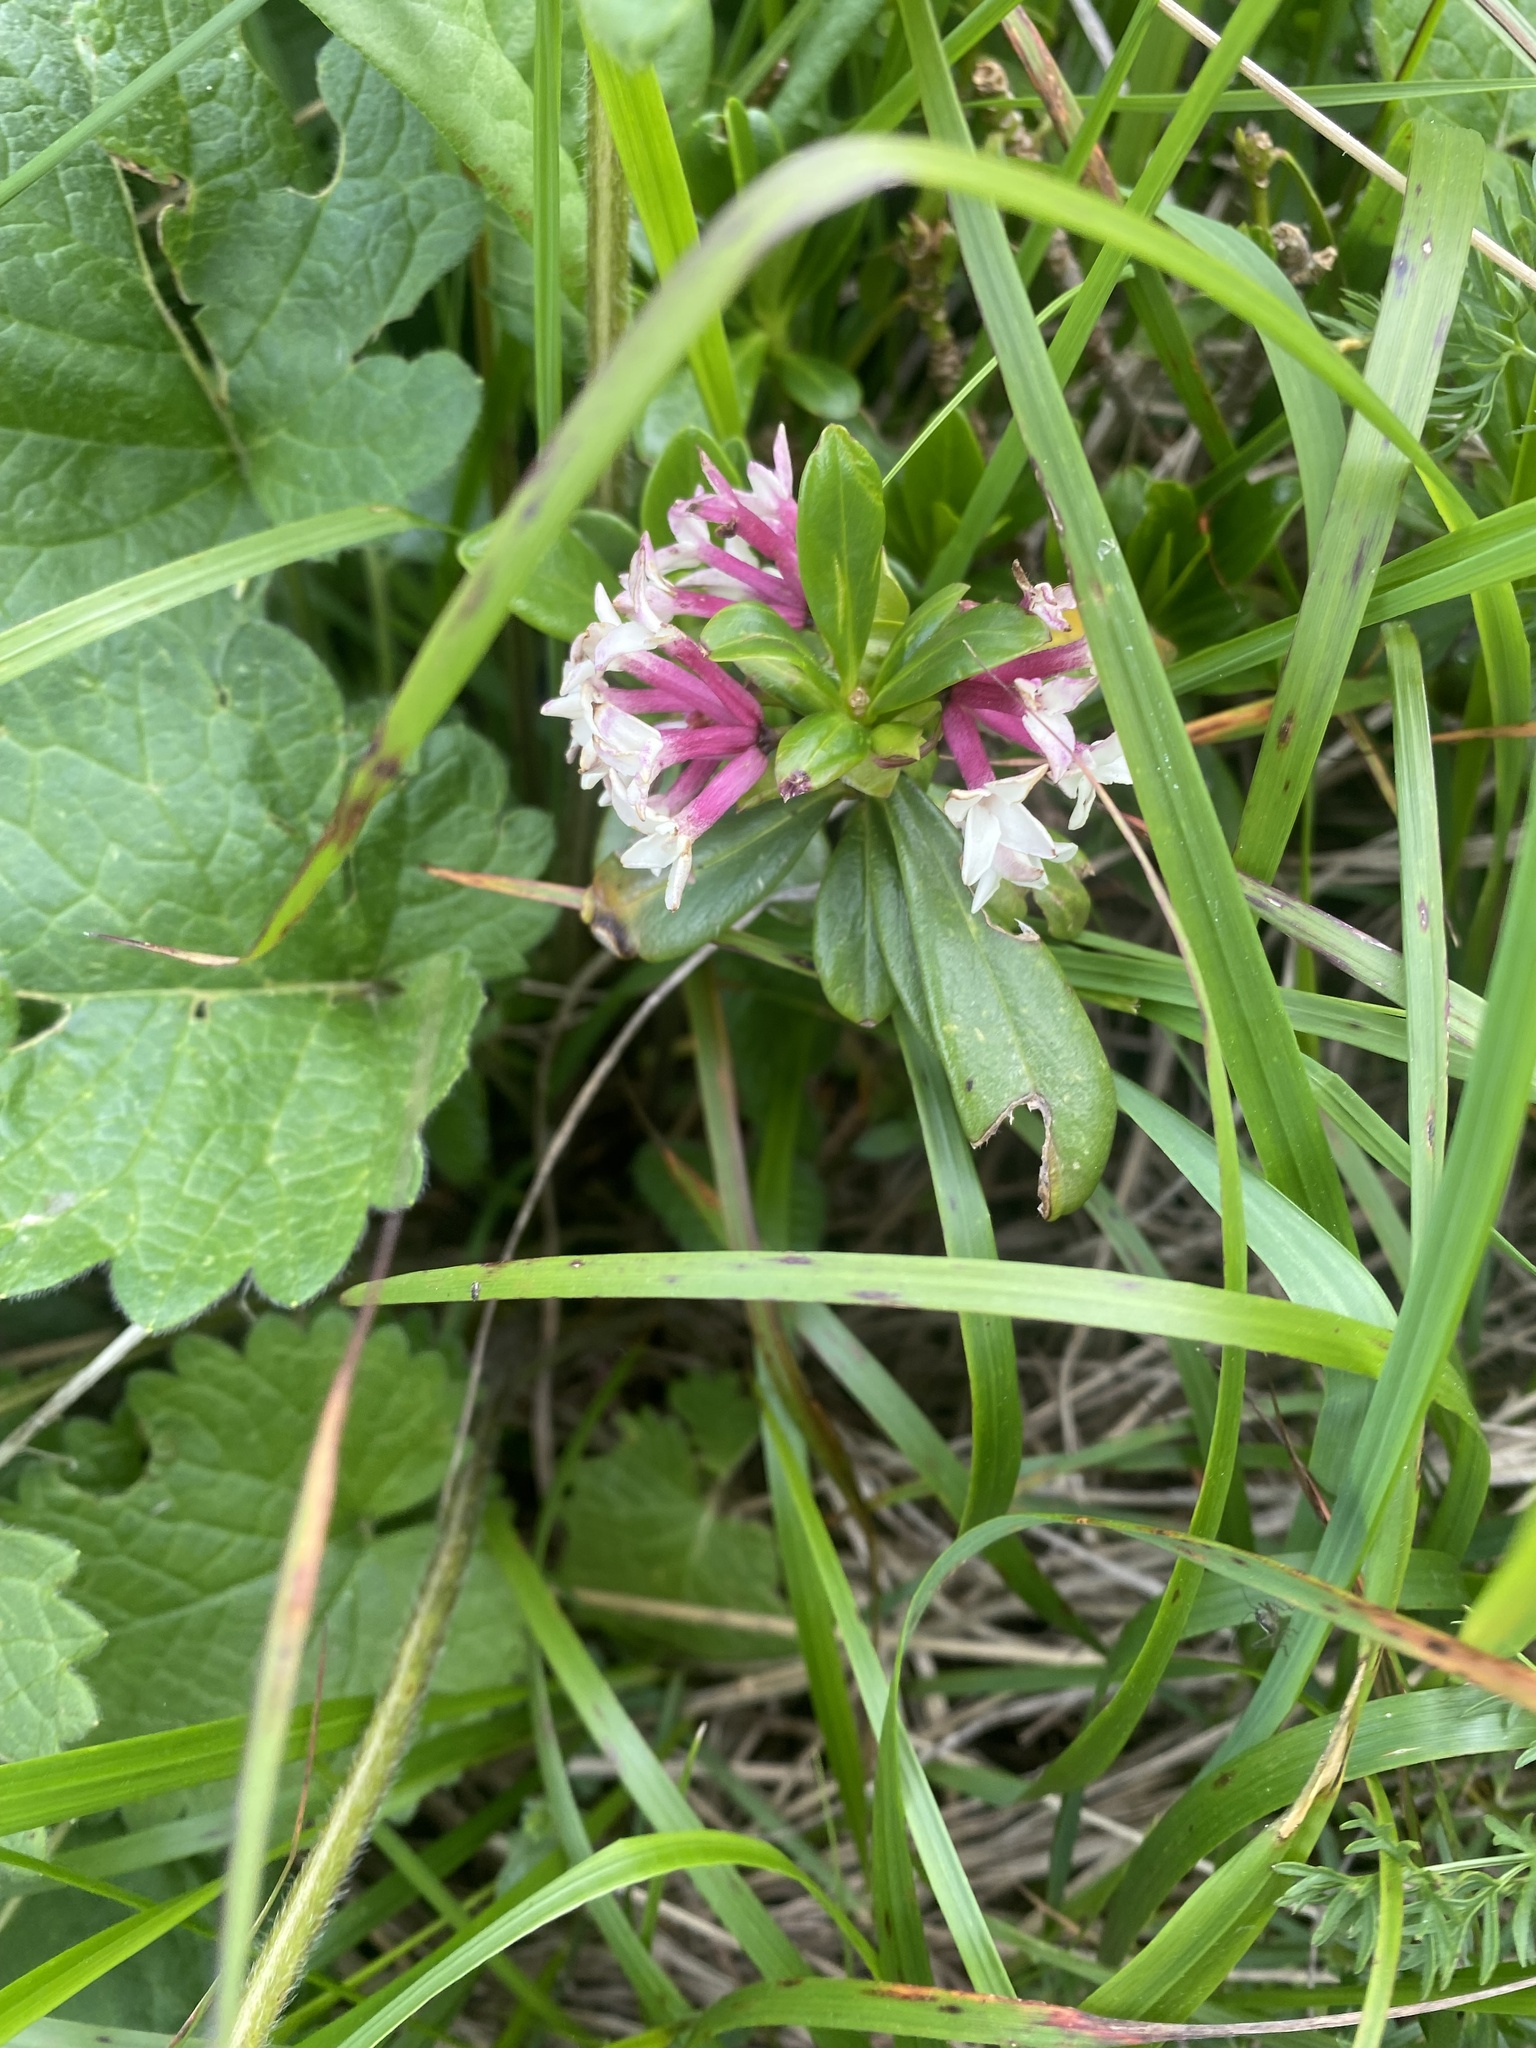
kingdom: Plantae
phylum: Tracheophyta
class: Magnoliopsida
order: Malvales
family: Thymelaeaceae
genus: Daphne
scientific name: Daphne glomerata
